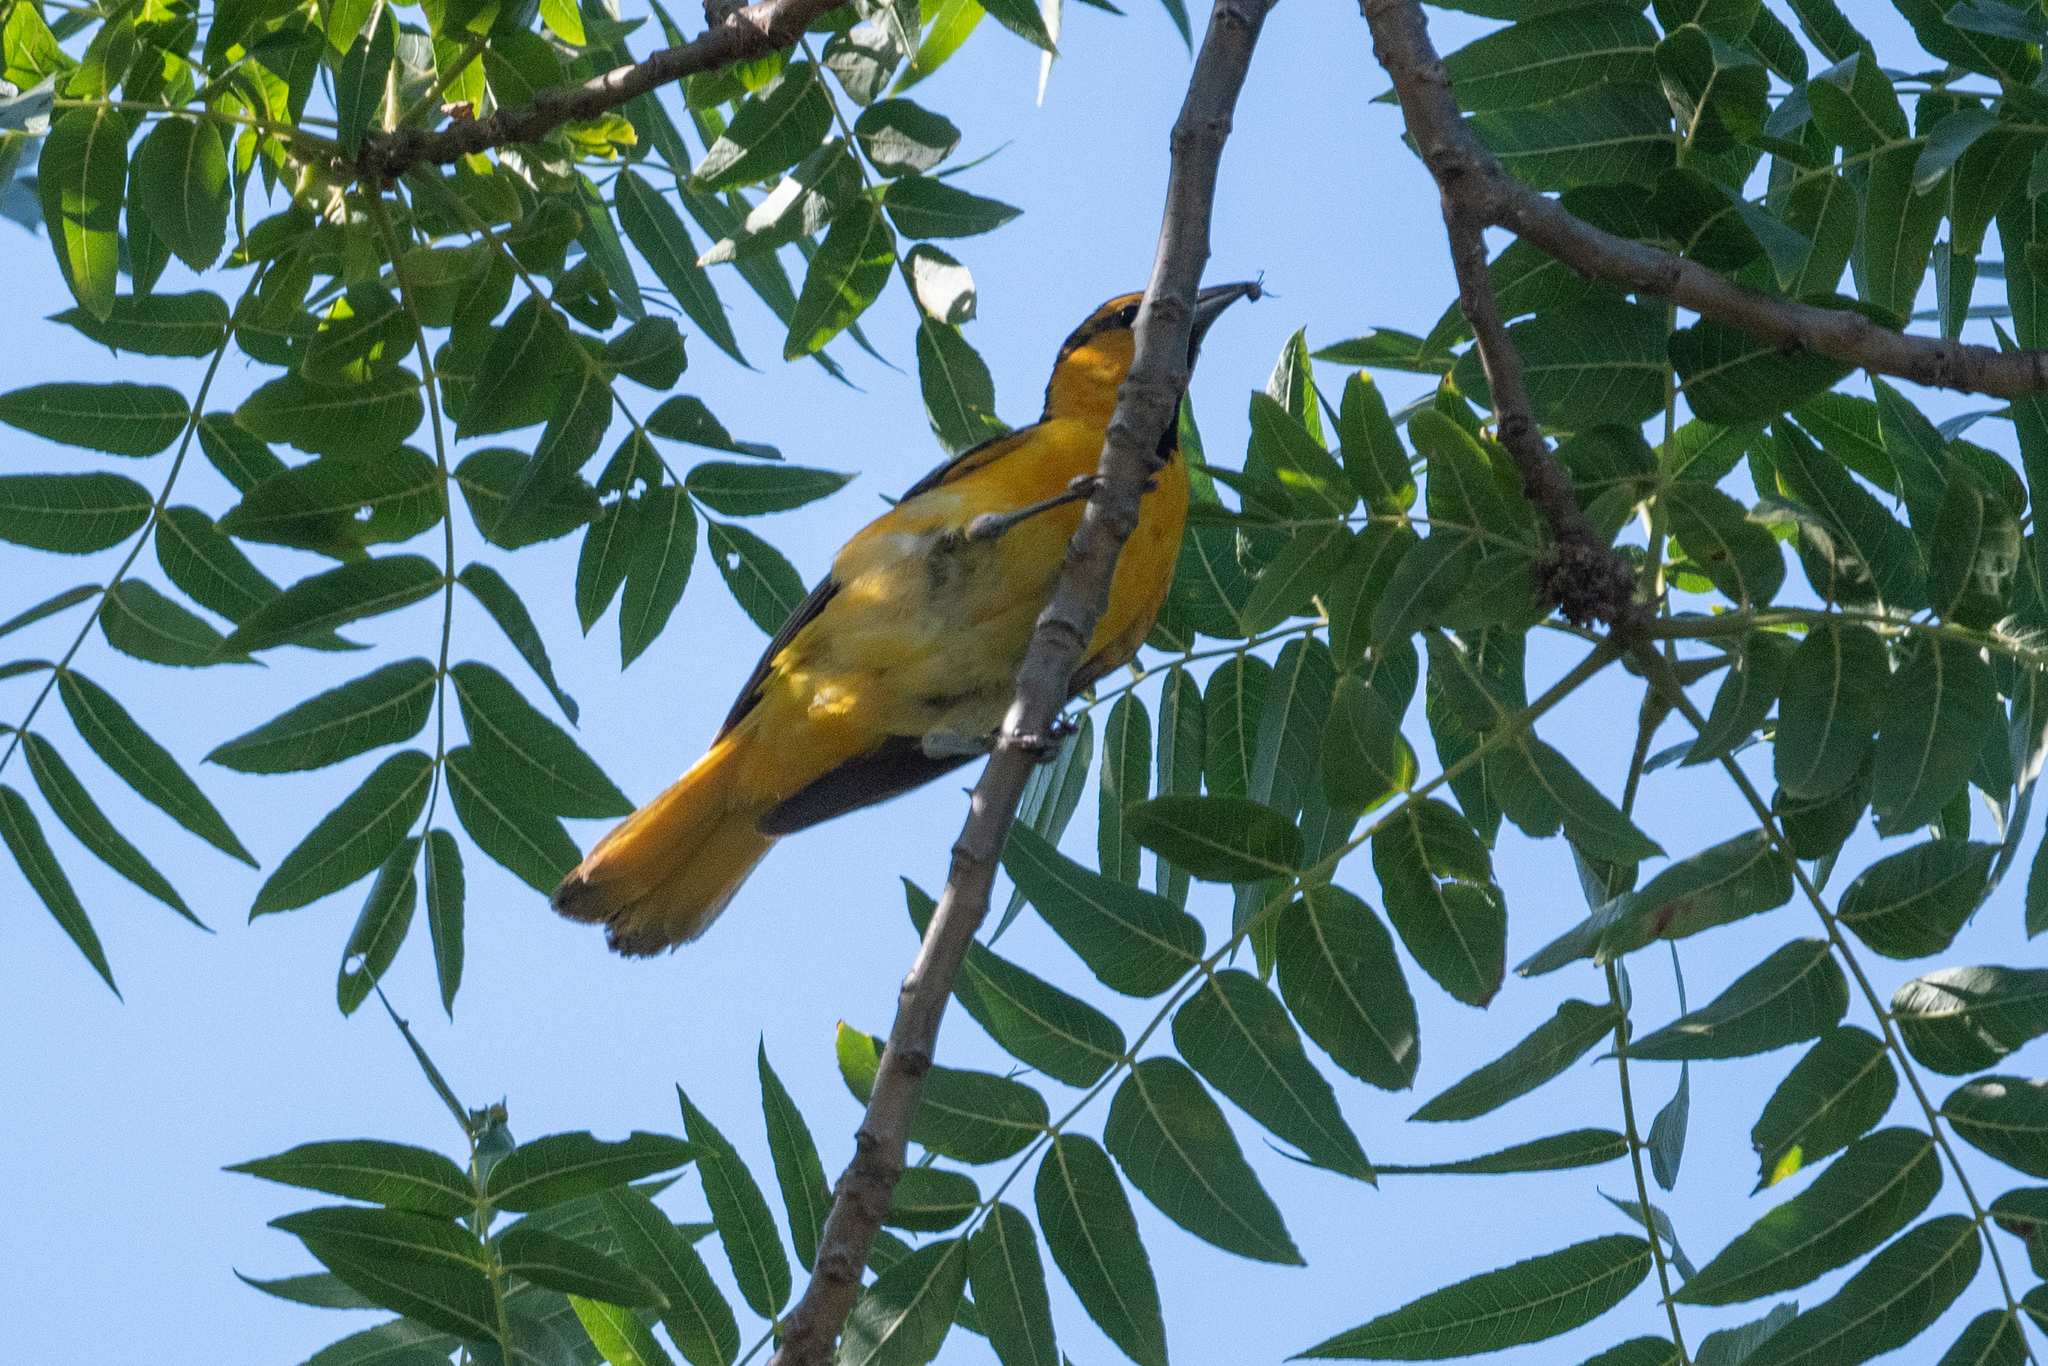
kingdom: Animalia
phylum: Chordata
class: Aves
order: Passeriformes
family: Icteridae
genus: Icterus
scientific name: Icterus bullockii
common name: Bullock's oriole
